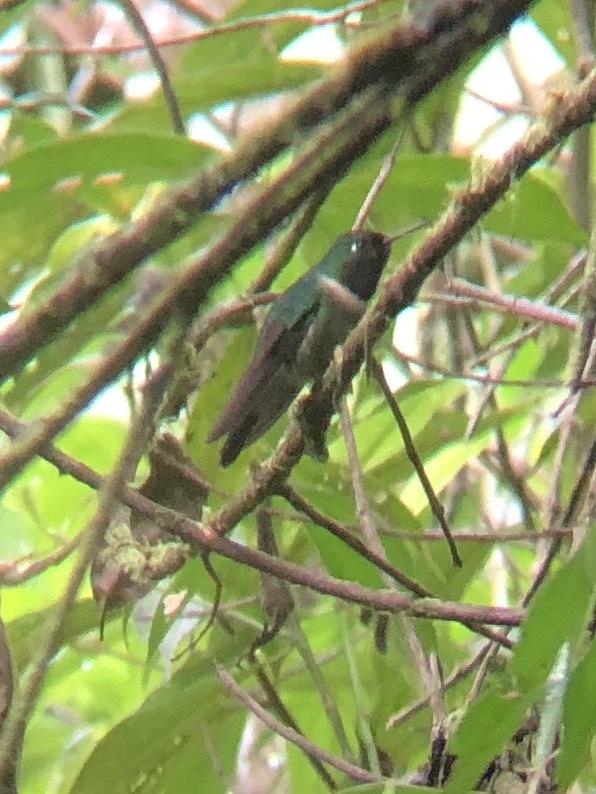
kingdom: Animalia
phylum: Chordata
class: Aves
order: Apodiformes
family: Trochilidae
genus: Heliangelus
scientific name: Heliangelus amethysticollis
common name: Amethyst-throated sunangel
